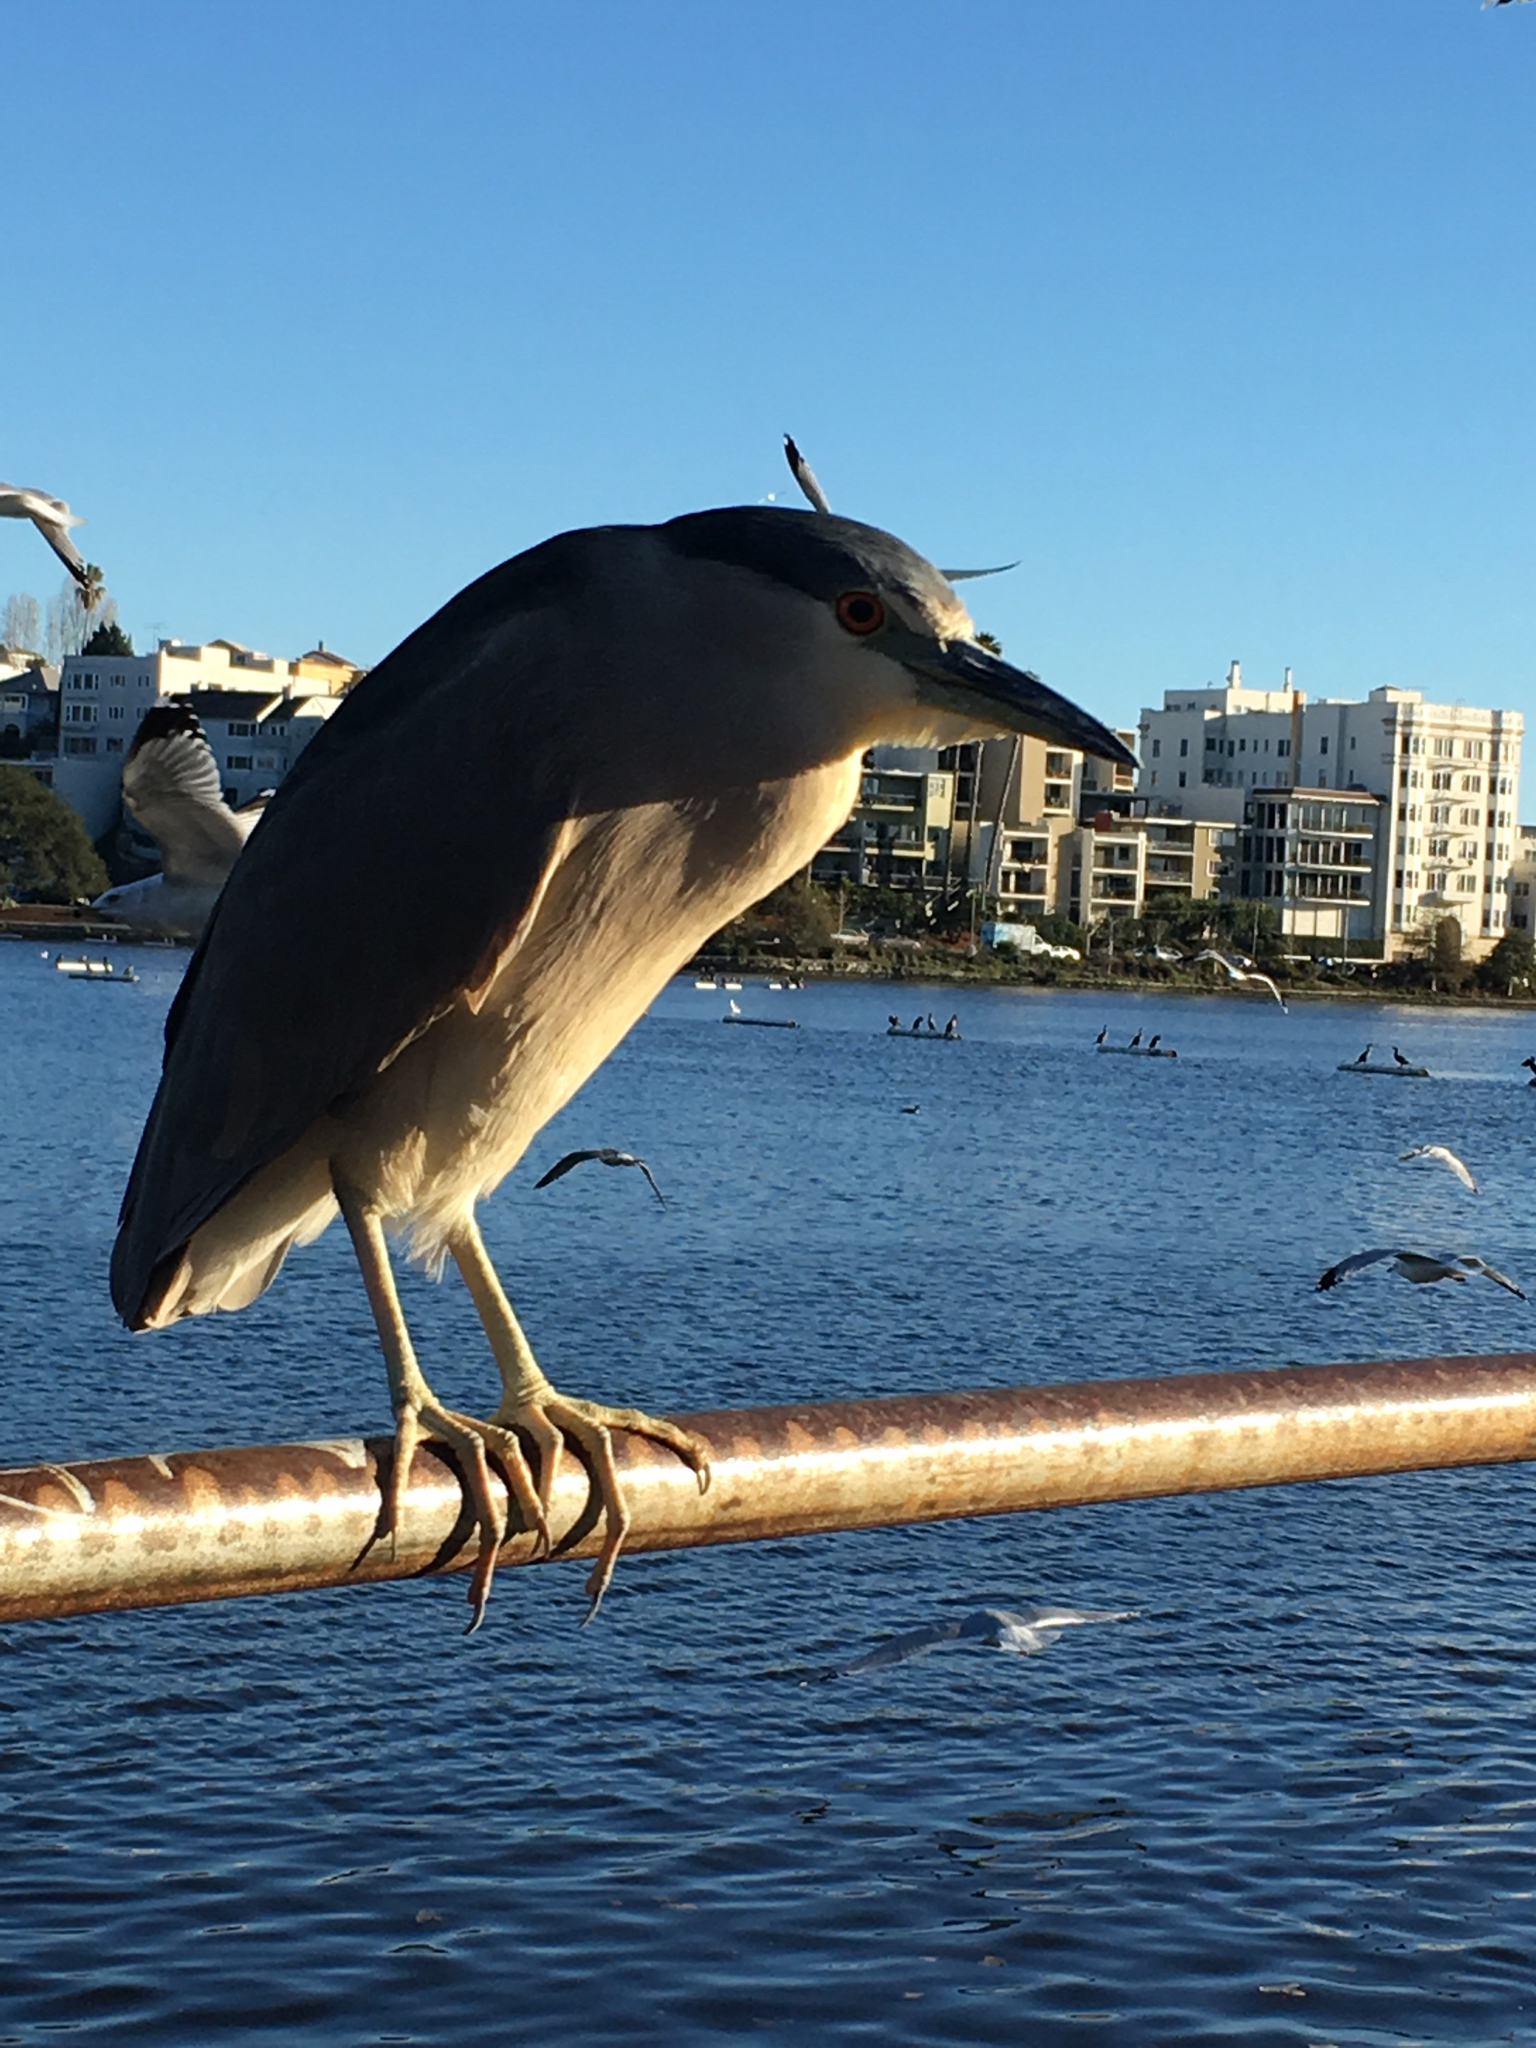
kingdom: Animalia
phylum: Chordata
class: Aves
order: Pelecaniformes
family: Ardeidae
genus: Nycticorax
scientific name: Nycticorax nycticorax
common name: Black-crowned night heron
